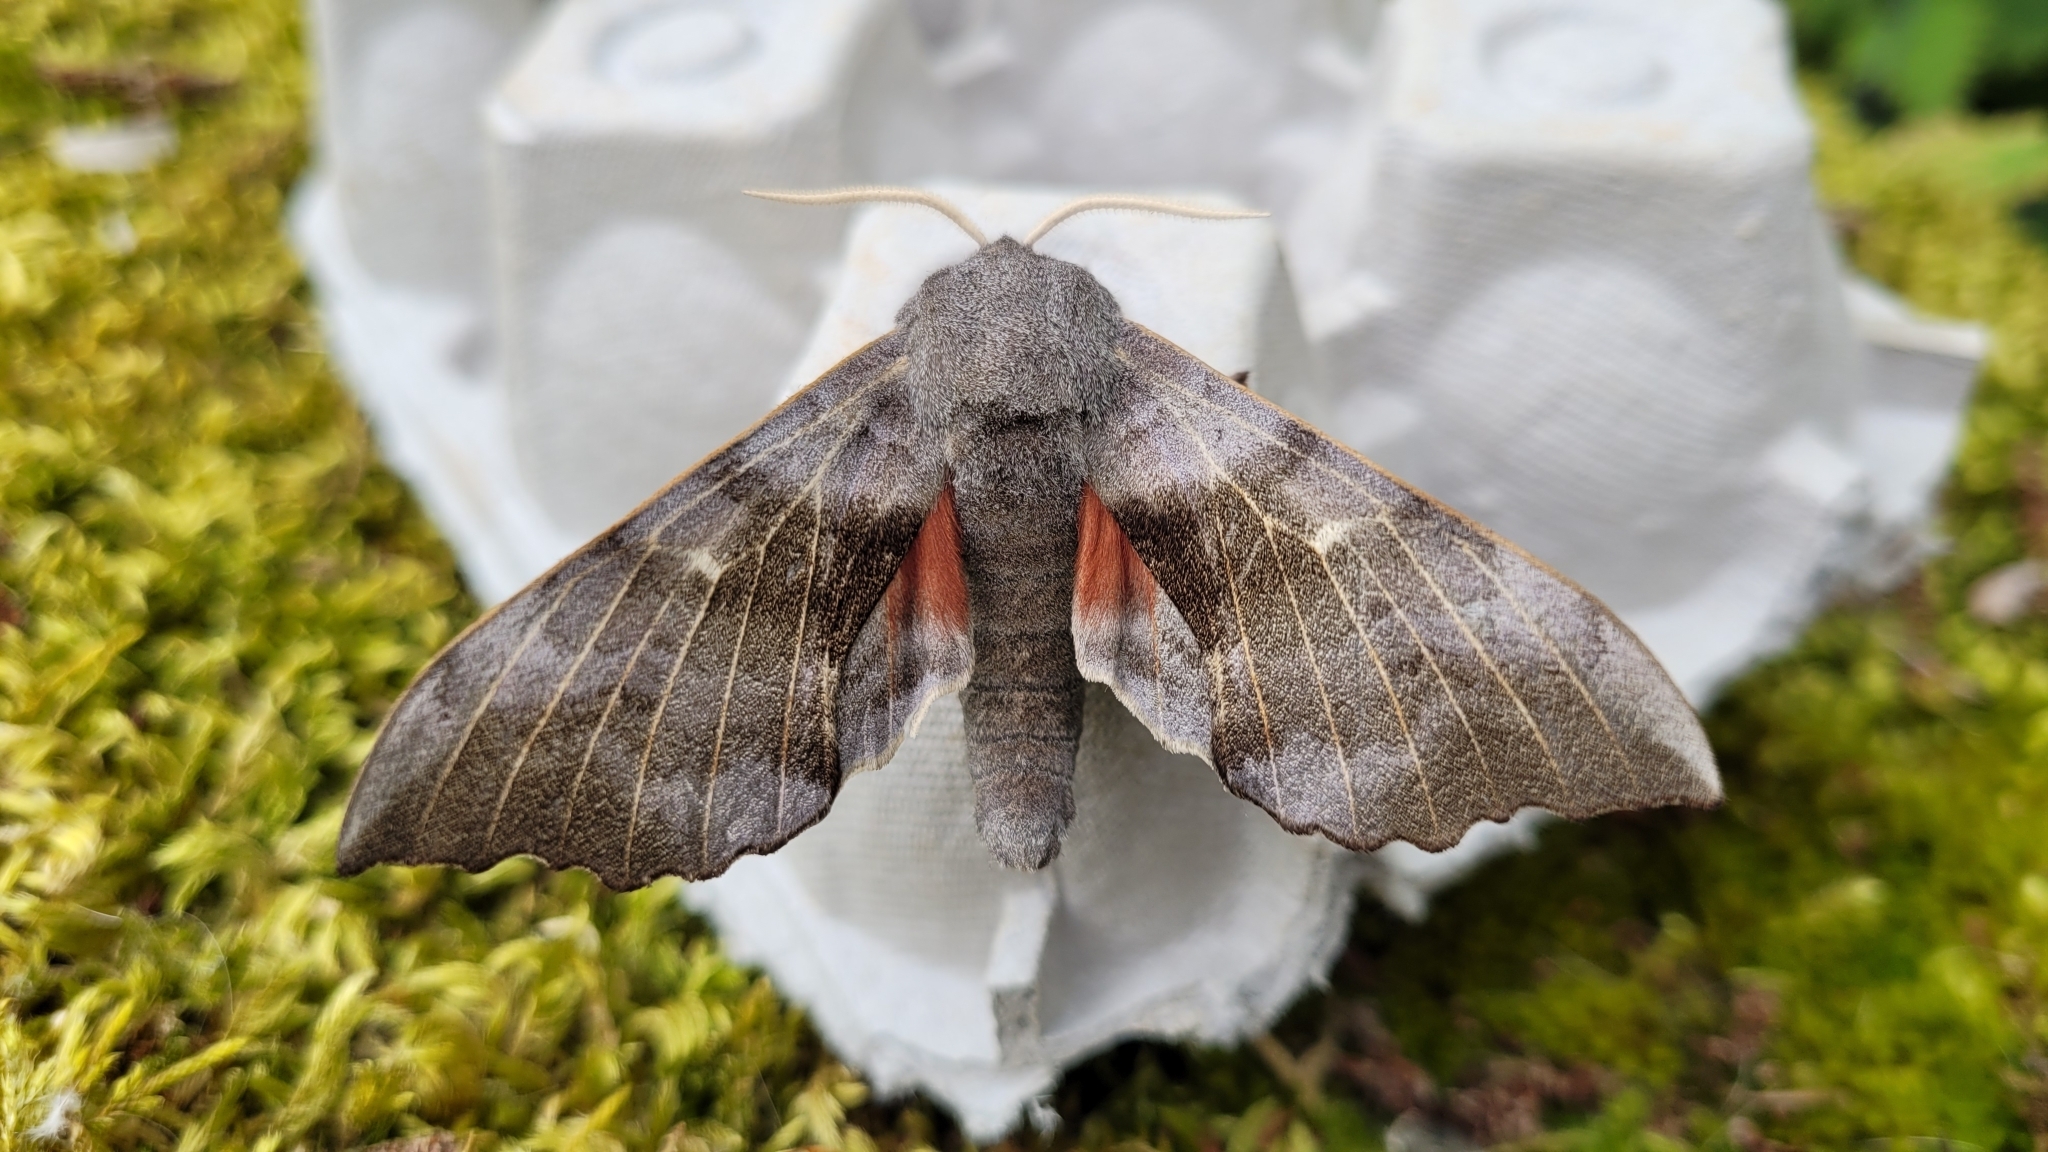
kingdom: Animalia
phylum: Arthropoda
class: Insecta
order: Lepidoptera
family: Sphingidae
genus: Laothoe
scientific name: Laothoe populi
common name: Poplar hawk-moth
